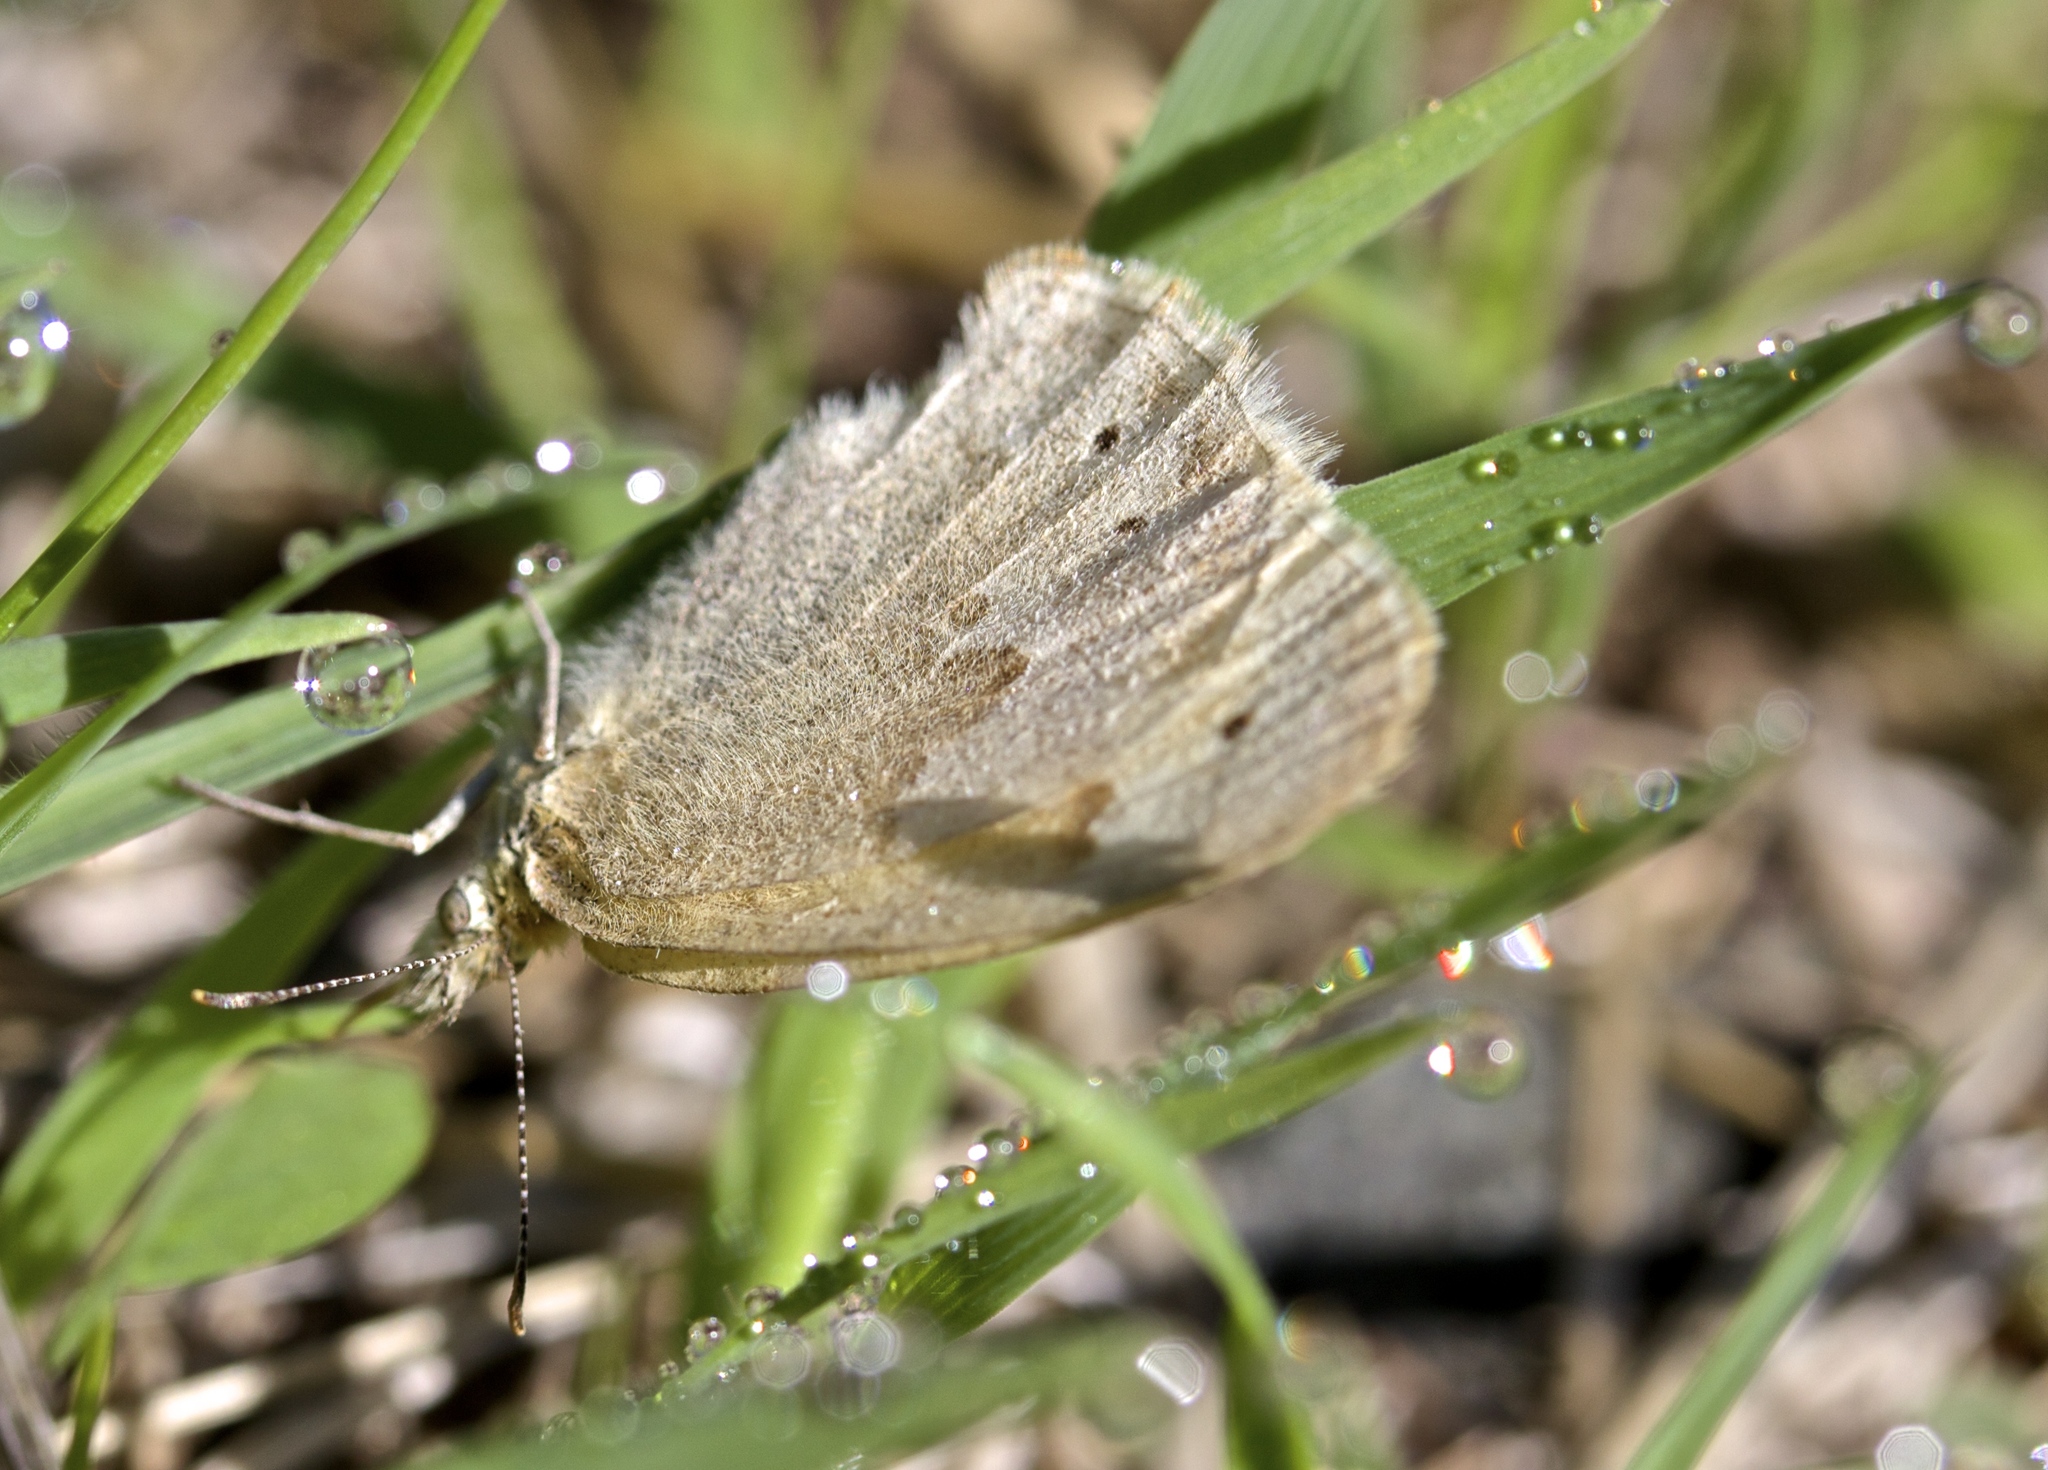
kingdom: Animalia
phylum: Arthropoda
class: Insecta
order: Lepidoptera
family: Nymphalidae
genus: Coenonympha
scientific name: Coenonympha california
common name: Common ringlet
